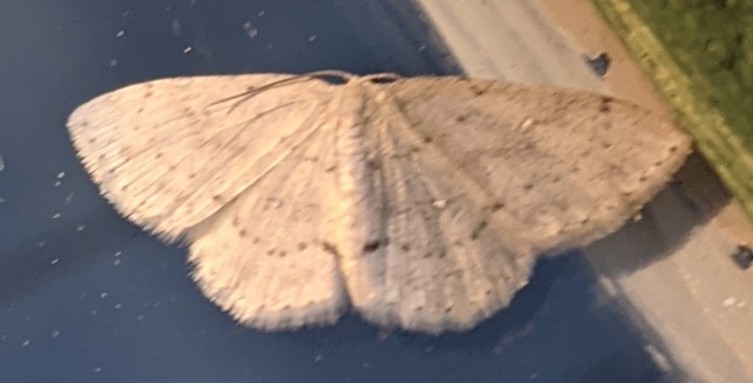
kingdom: Animalia
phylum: Arthropoda
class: Insecta
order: Lepidoptera
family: Geometridae
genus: Cyclophora
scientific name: Cyclophora pendulinaria
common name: Sweet fern geometer
